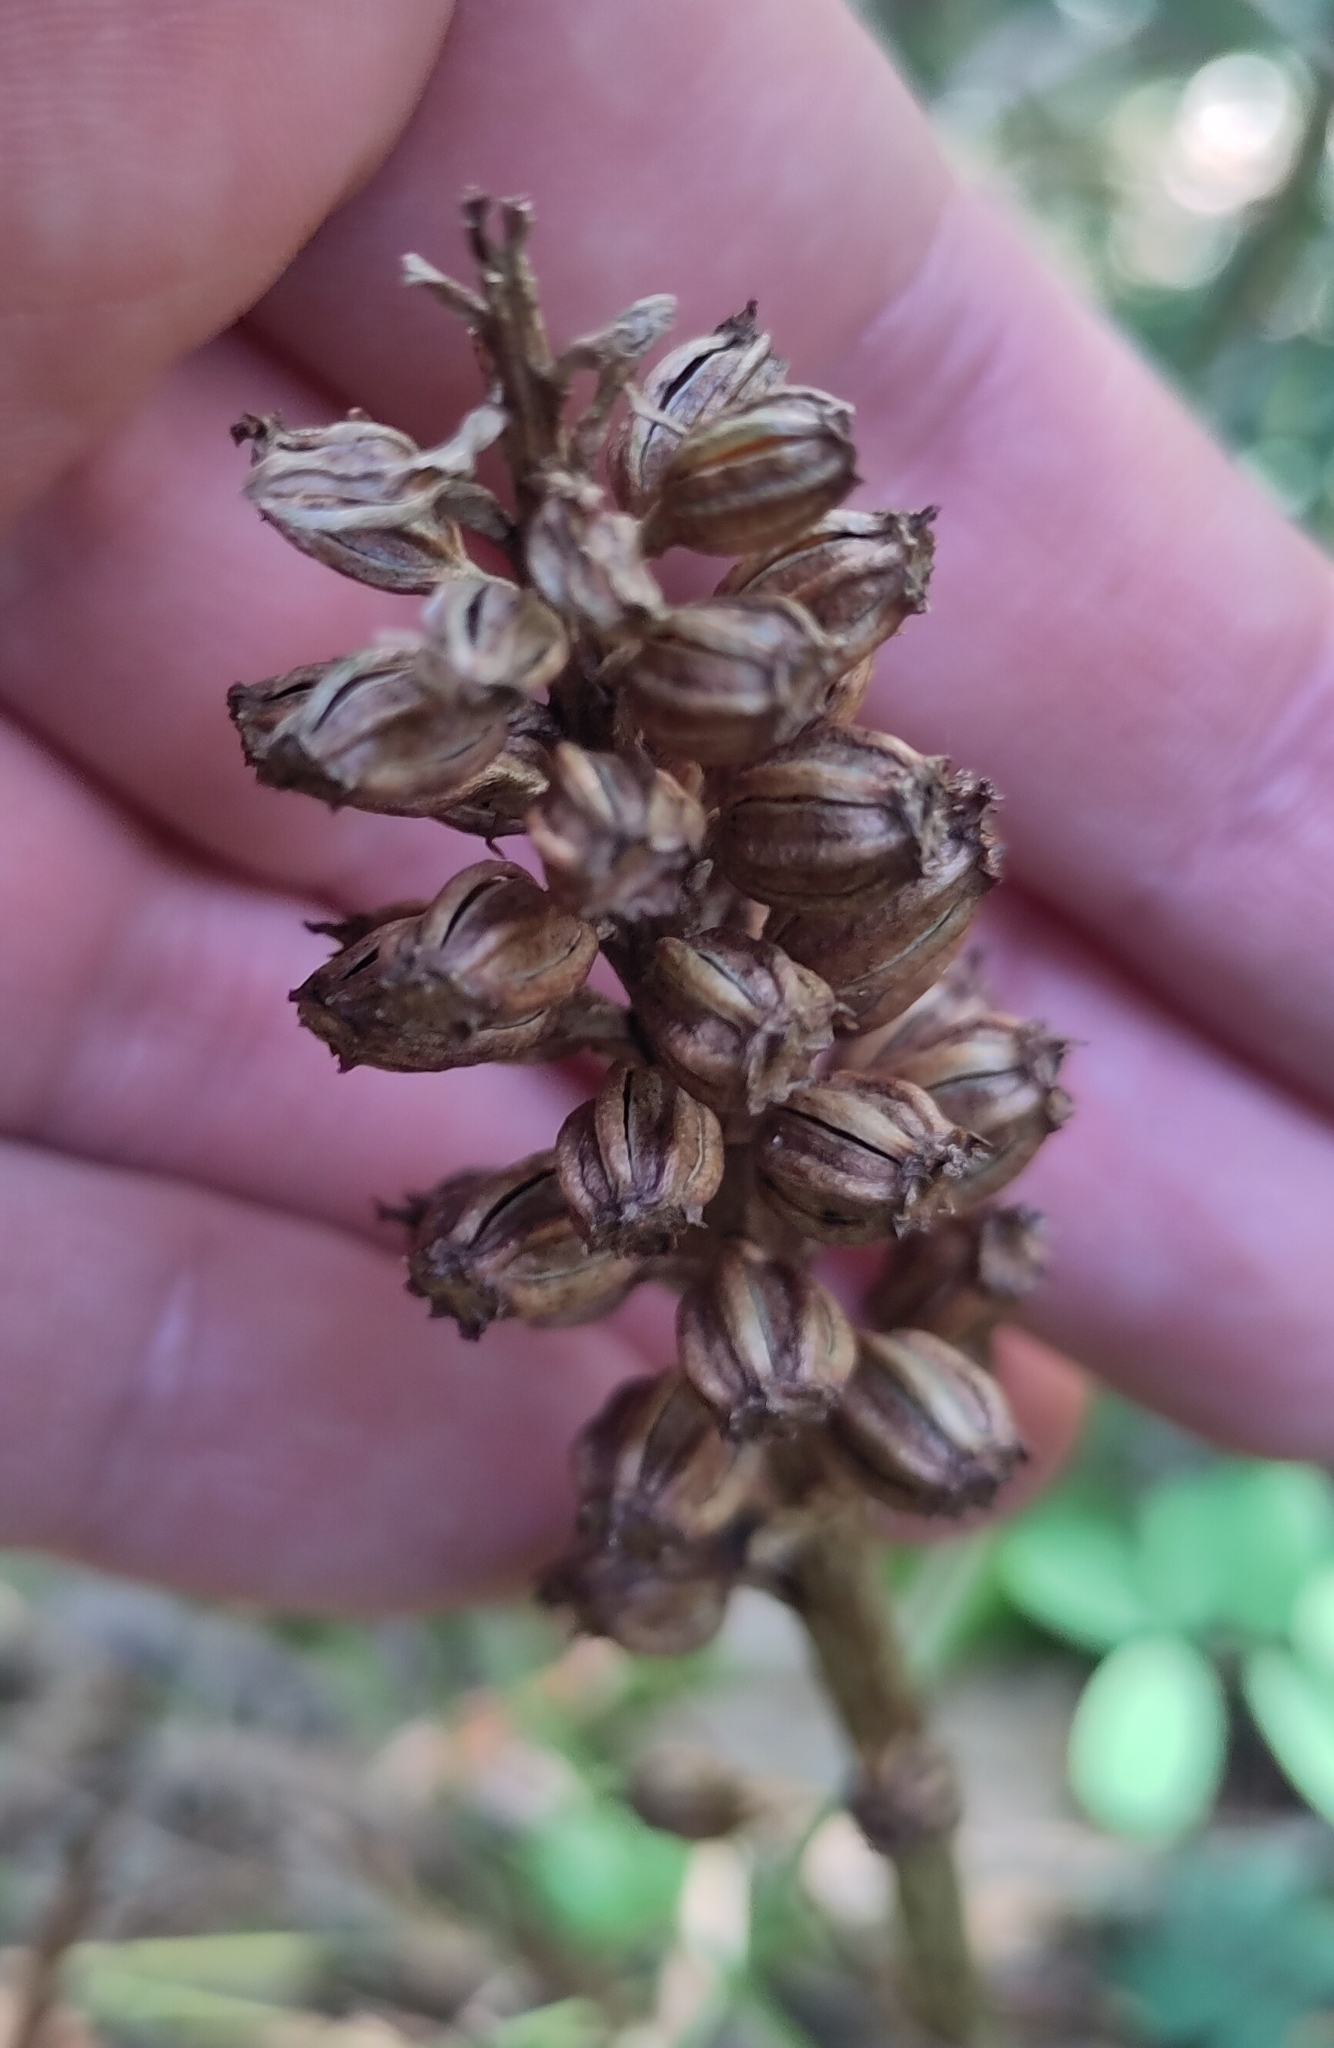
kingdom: Plantae
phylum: Tracheophyta
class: Liliopsida
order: Asparagales
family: Orchidaceae
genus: Neottia
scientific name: Neottia nidus-avis
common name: Bird's-nest orchid
